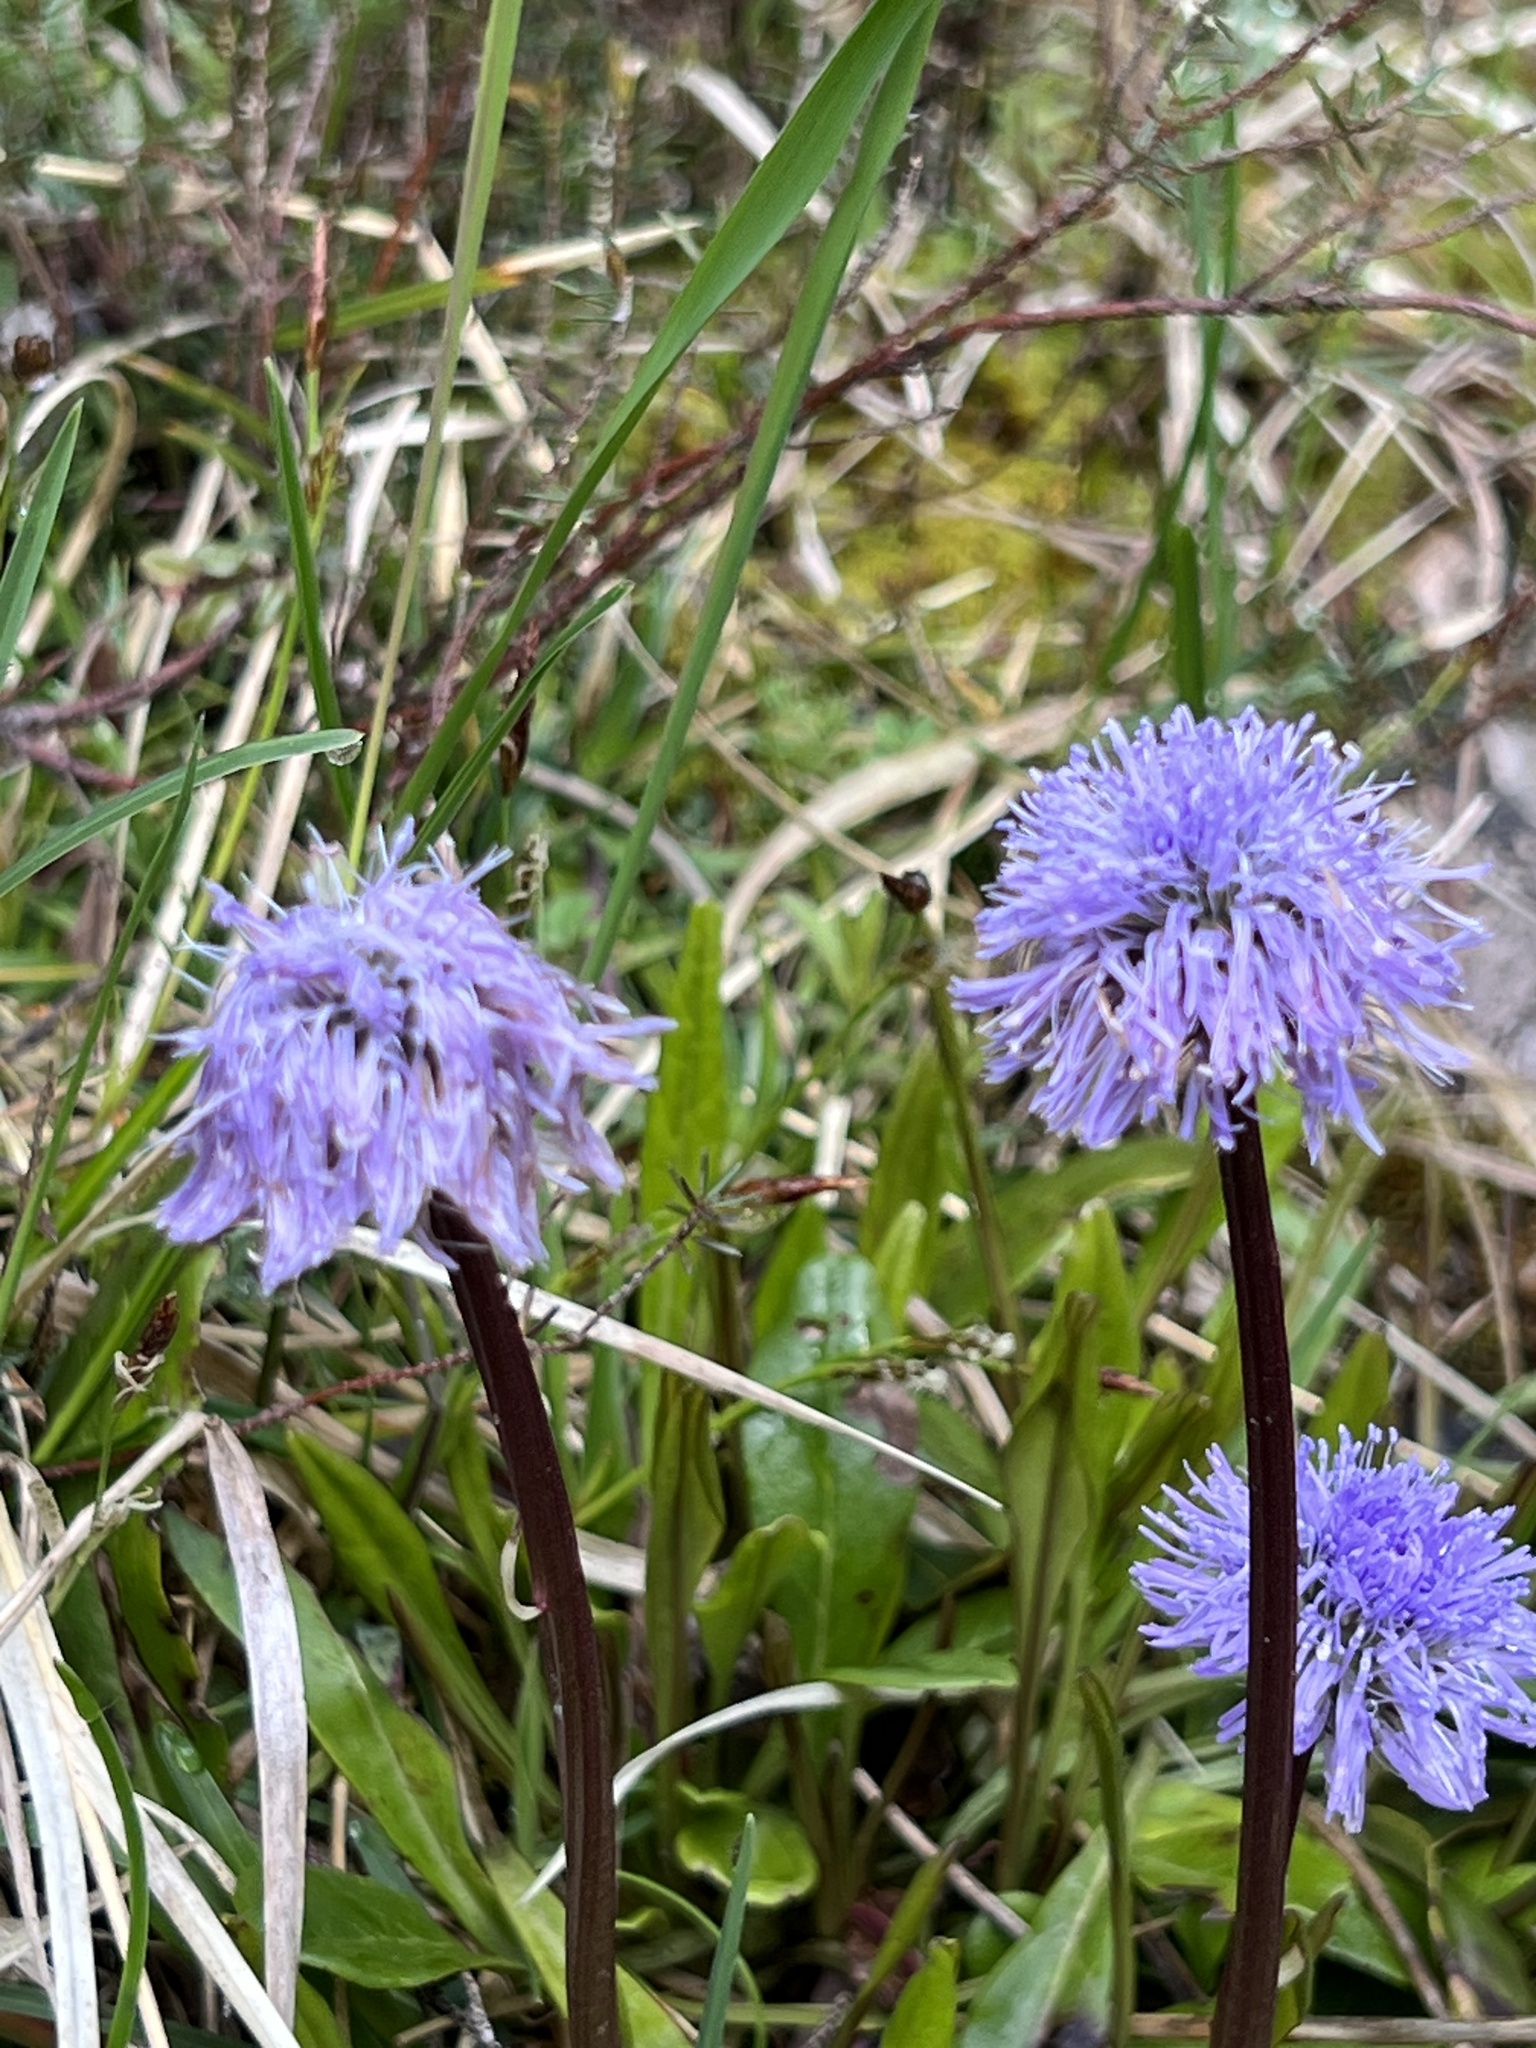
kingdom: Plantae
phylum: Tracheophyta
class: Magnoliopsida
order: Lamiales
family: Plantaginaceae
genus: Globularia
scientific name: Globularia nudicaulis
